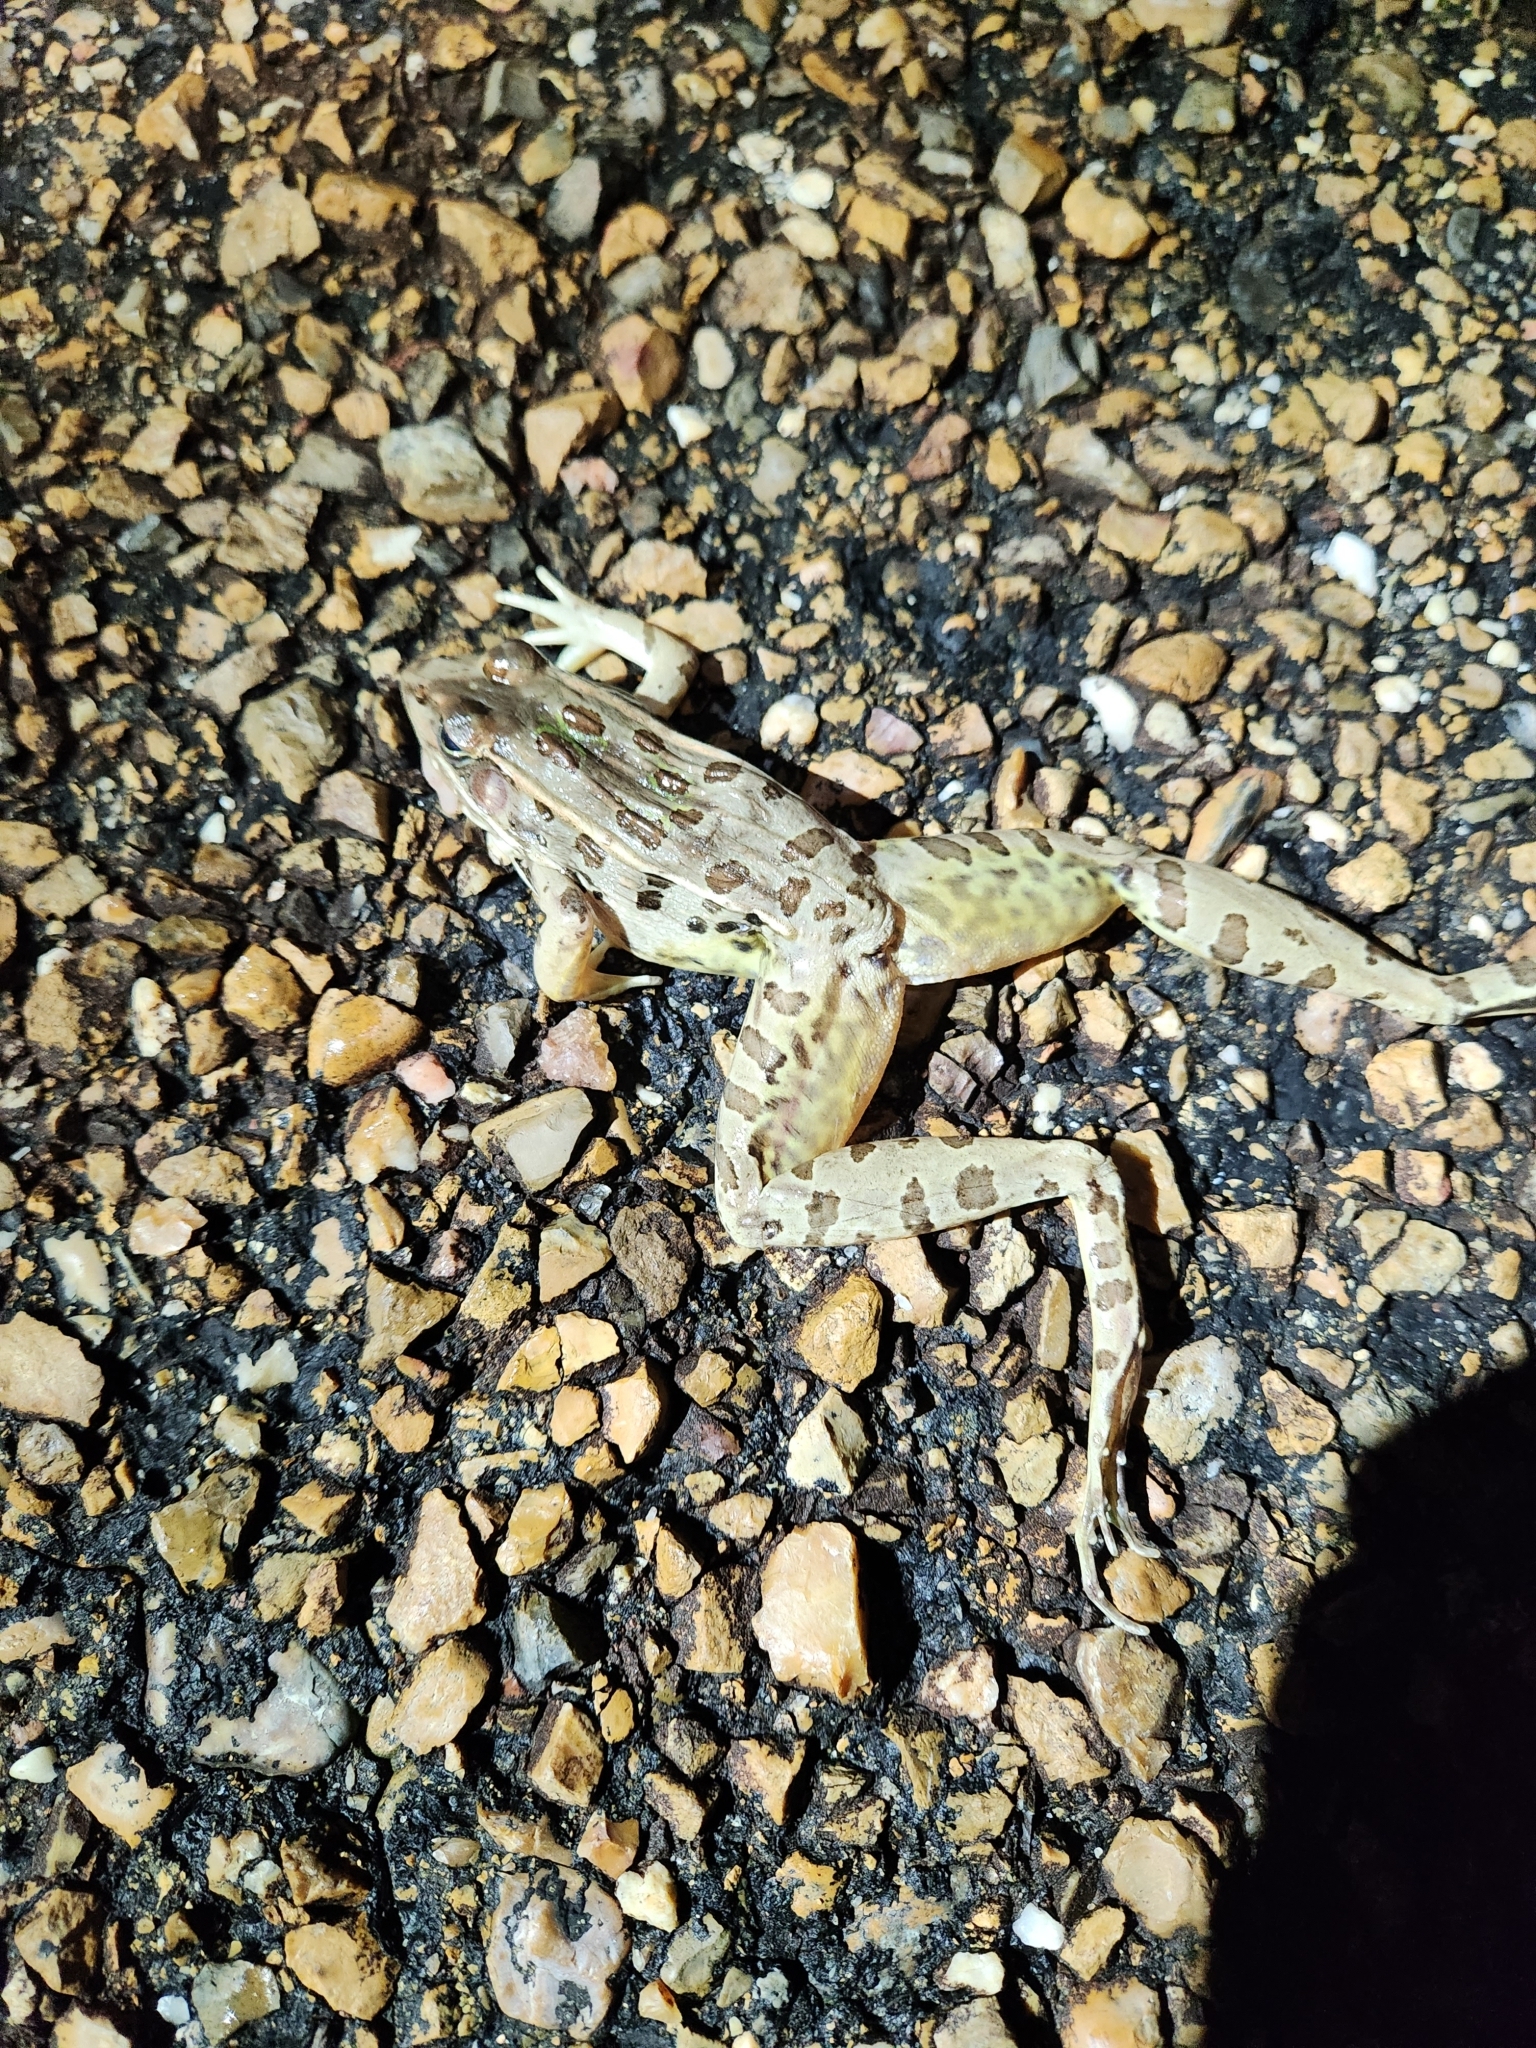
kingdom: Animalia
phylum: Chordata
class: Amphibia
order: Anura
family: Ranidae
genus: Lithobates
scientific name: Lithobates sphenocephalus
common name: Southern leopard frog
